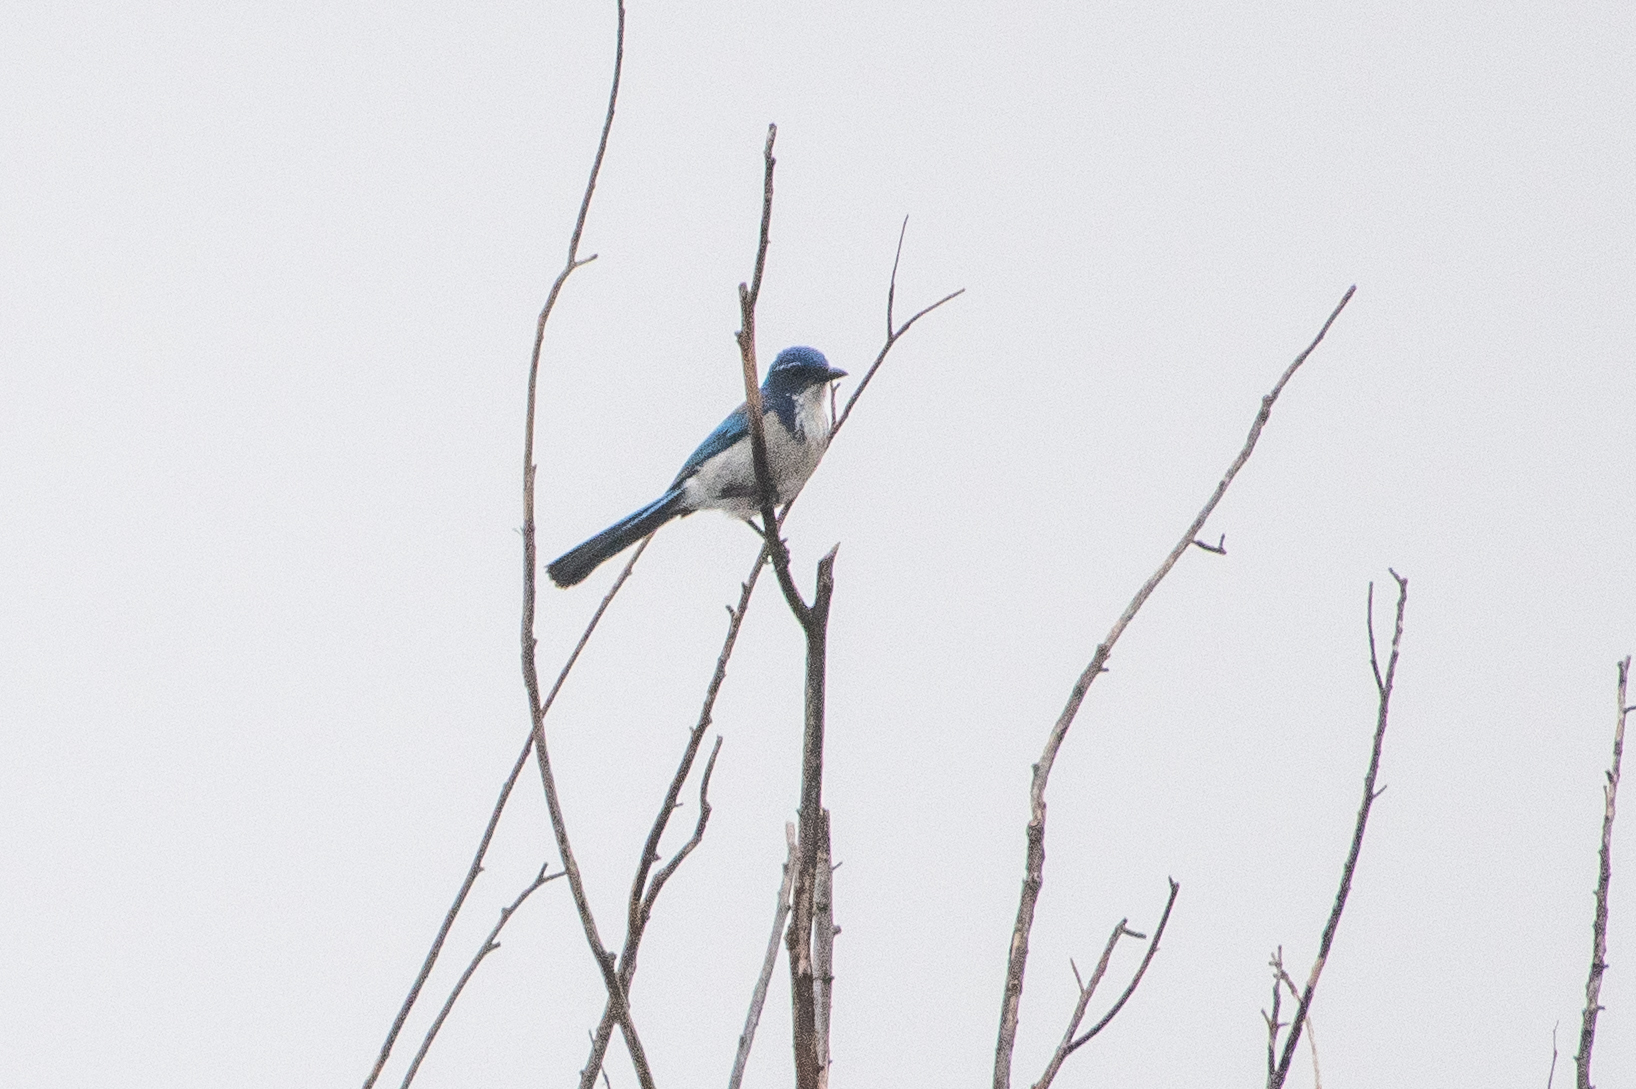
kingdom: Animalia
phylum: Chordata
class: Aves
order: Passeriformes
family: Corvidae
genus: Aphelocoma
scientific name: Aphelocoma californica
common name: California scrub-jay
